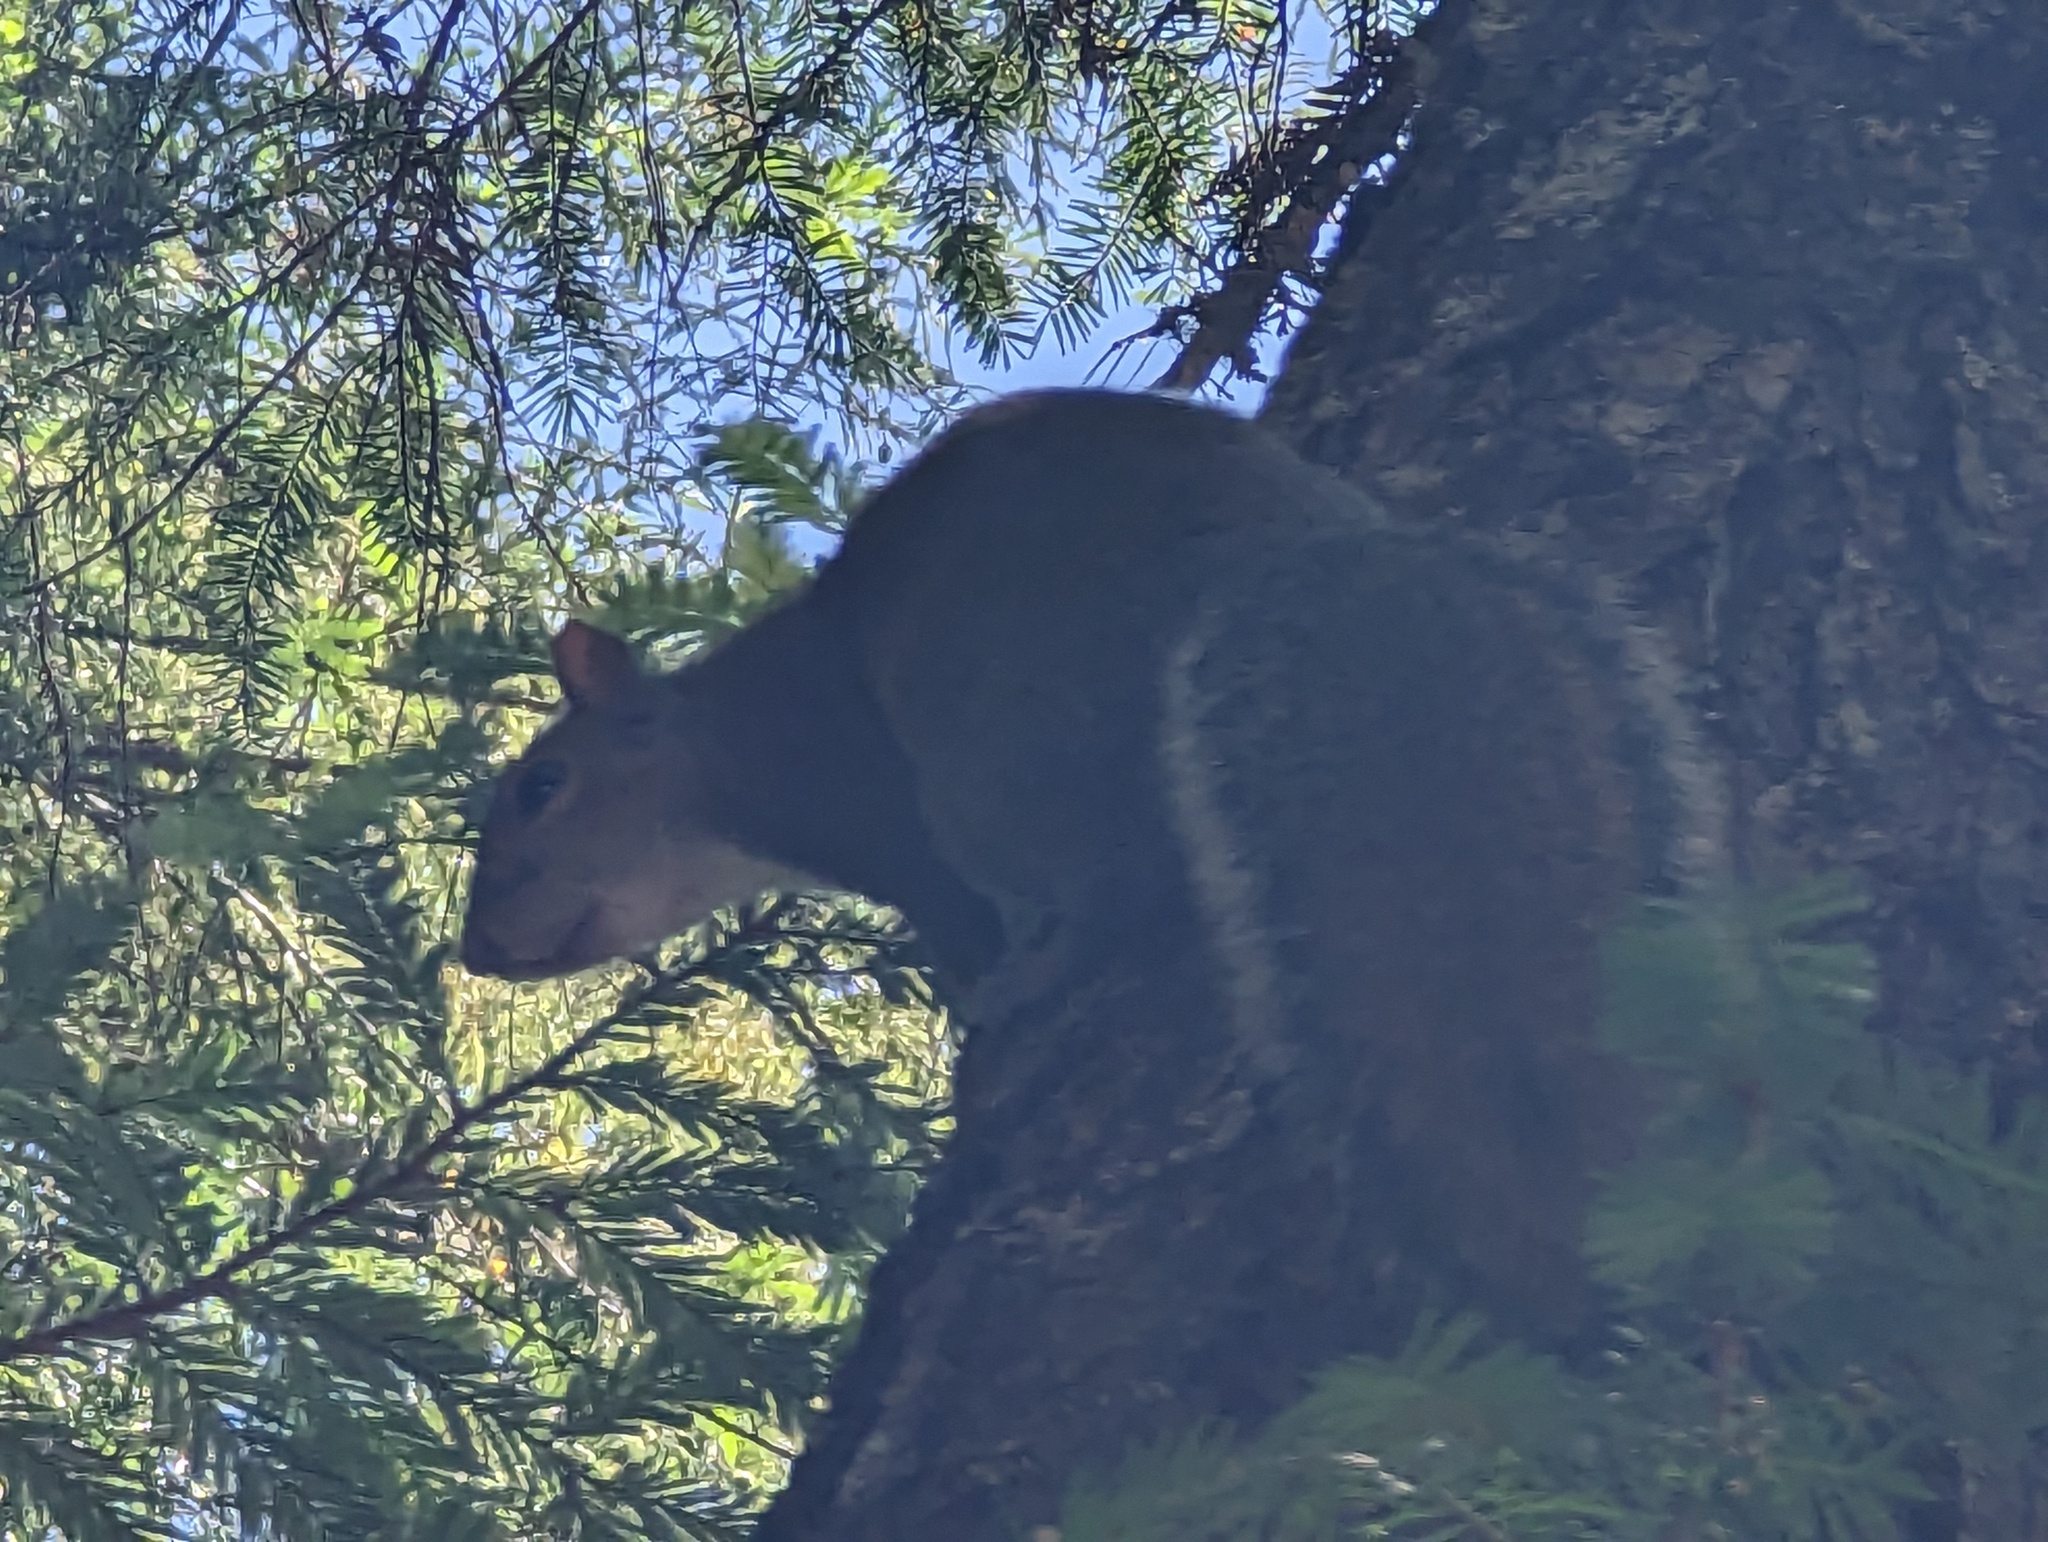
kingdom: Animalia
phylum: Chordata
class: Mammalia
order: Rodentia
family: Sciuridae
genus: Sciurus
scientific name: Sciurus carolinensis
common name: Eastern gray squirrel
